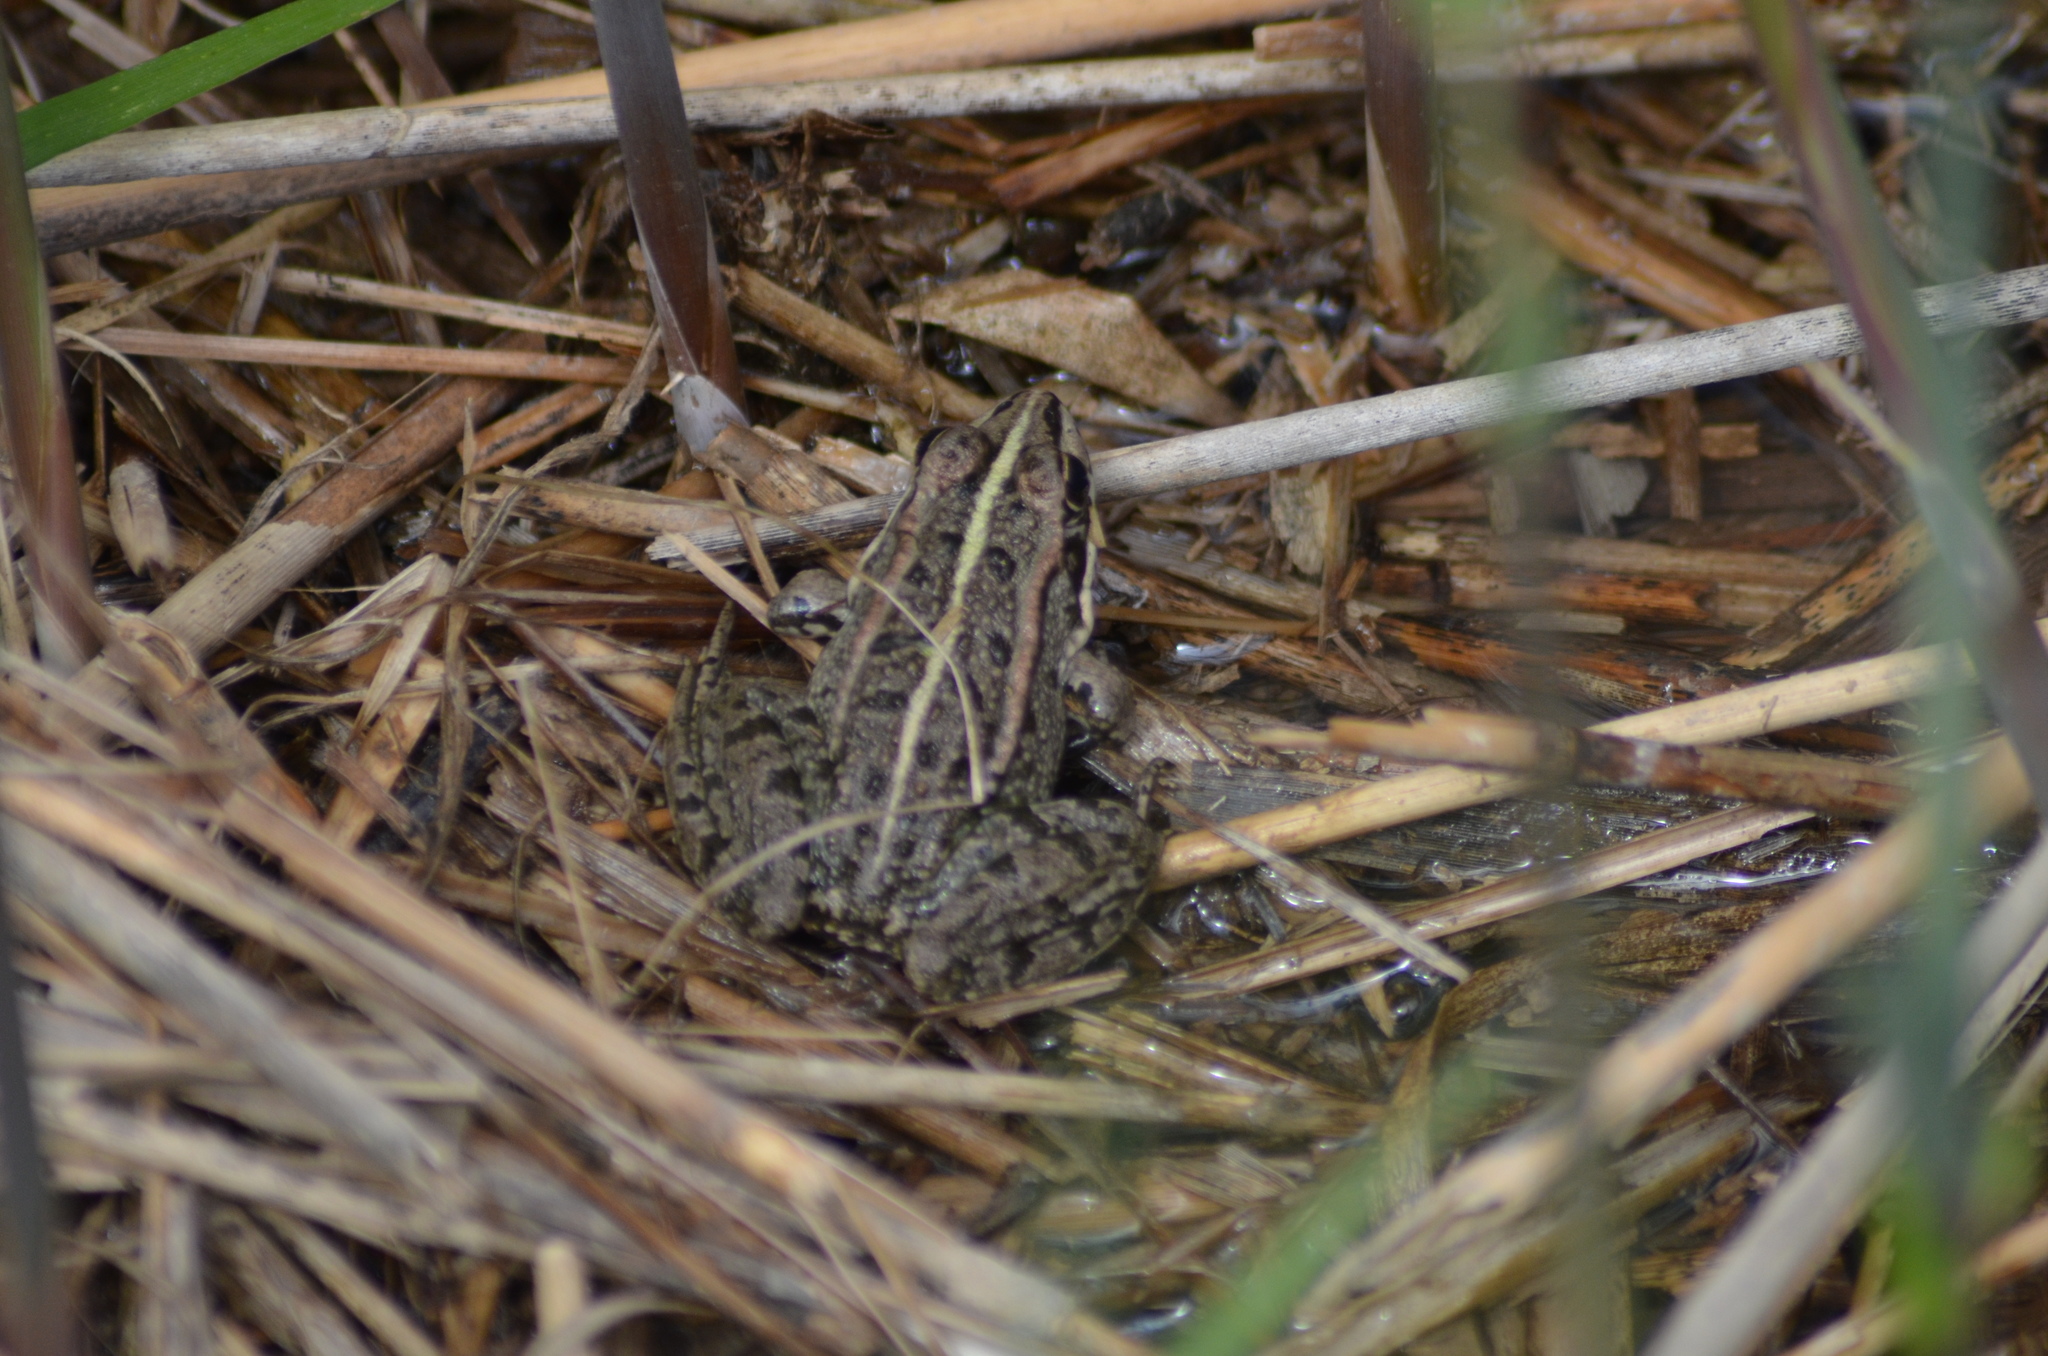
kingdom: Animalia
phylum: Chordata
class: Amphibia
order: Anura
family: Ranidae
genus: Pelophylax
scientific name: Pelophylax perezi
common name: Perez's frog
